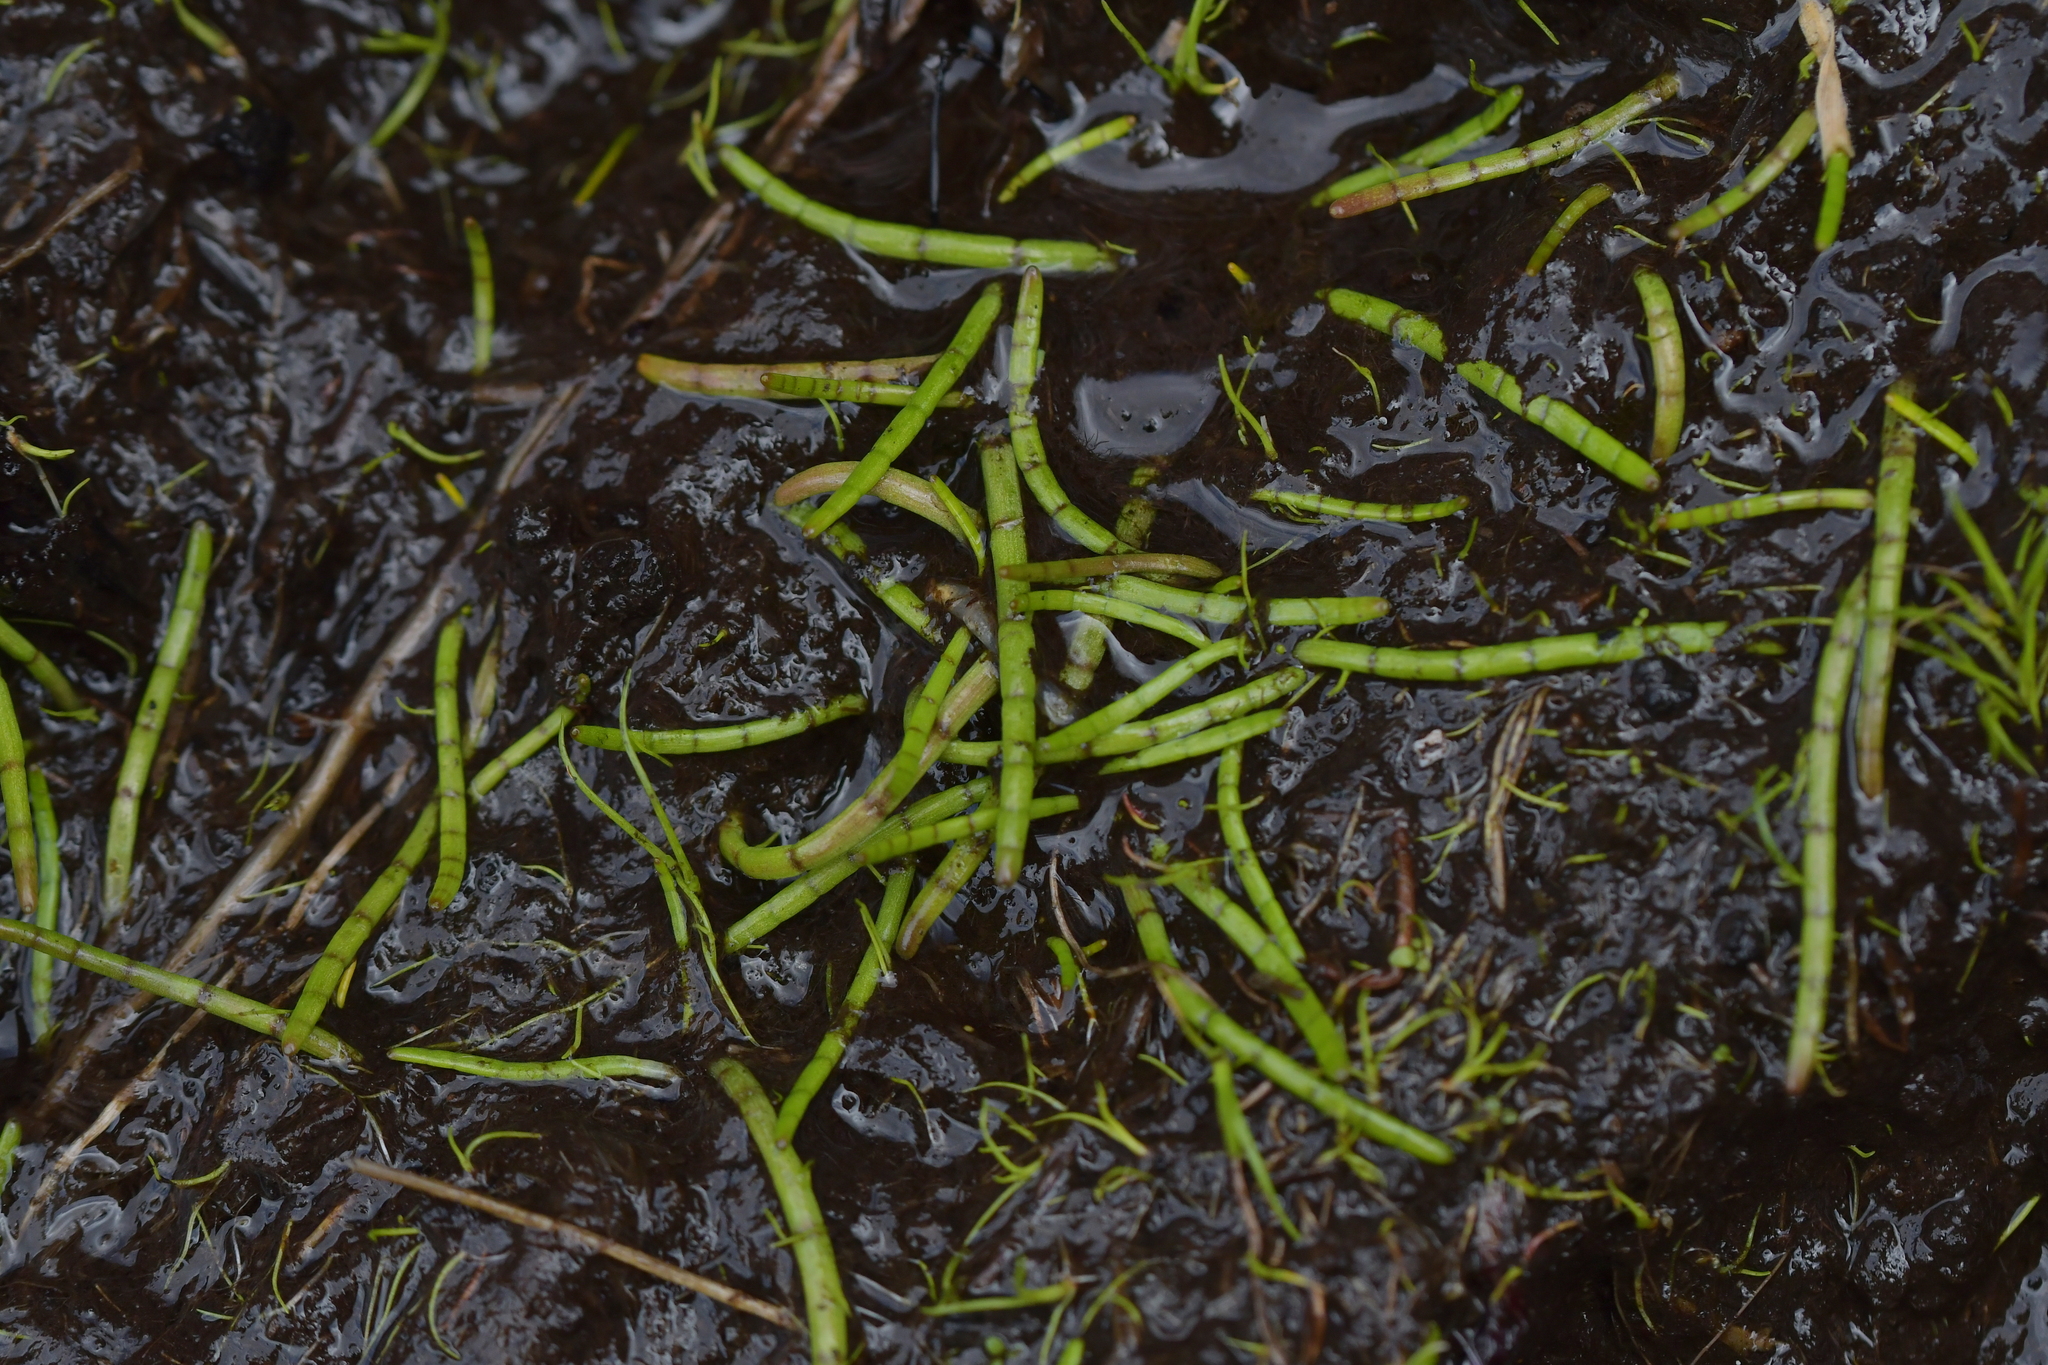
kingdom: Plantae
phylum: Tracheophyta
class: Magnoliopsida
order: Apiales
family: Apiaceae
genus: Lilaeopsis
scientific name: Lilaeopsis novae-zelandiae
